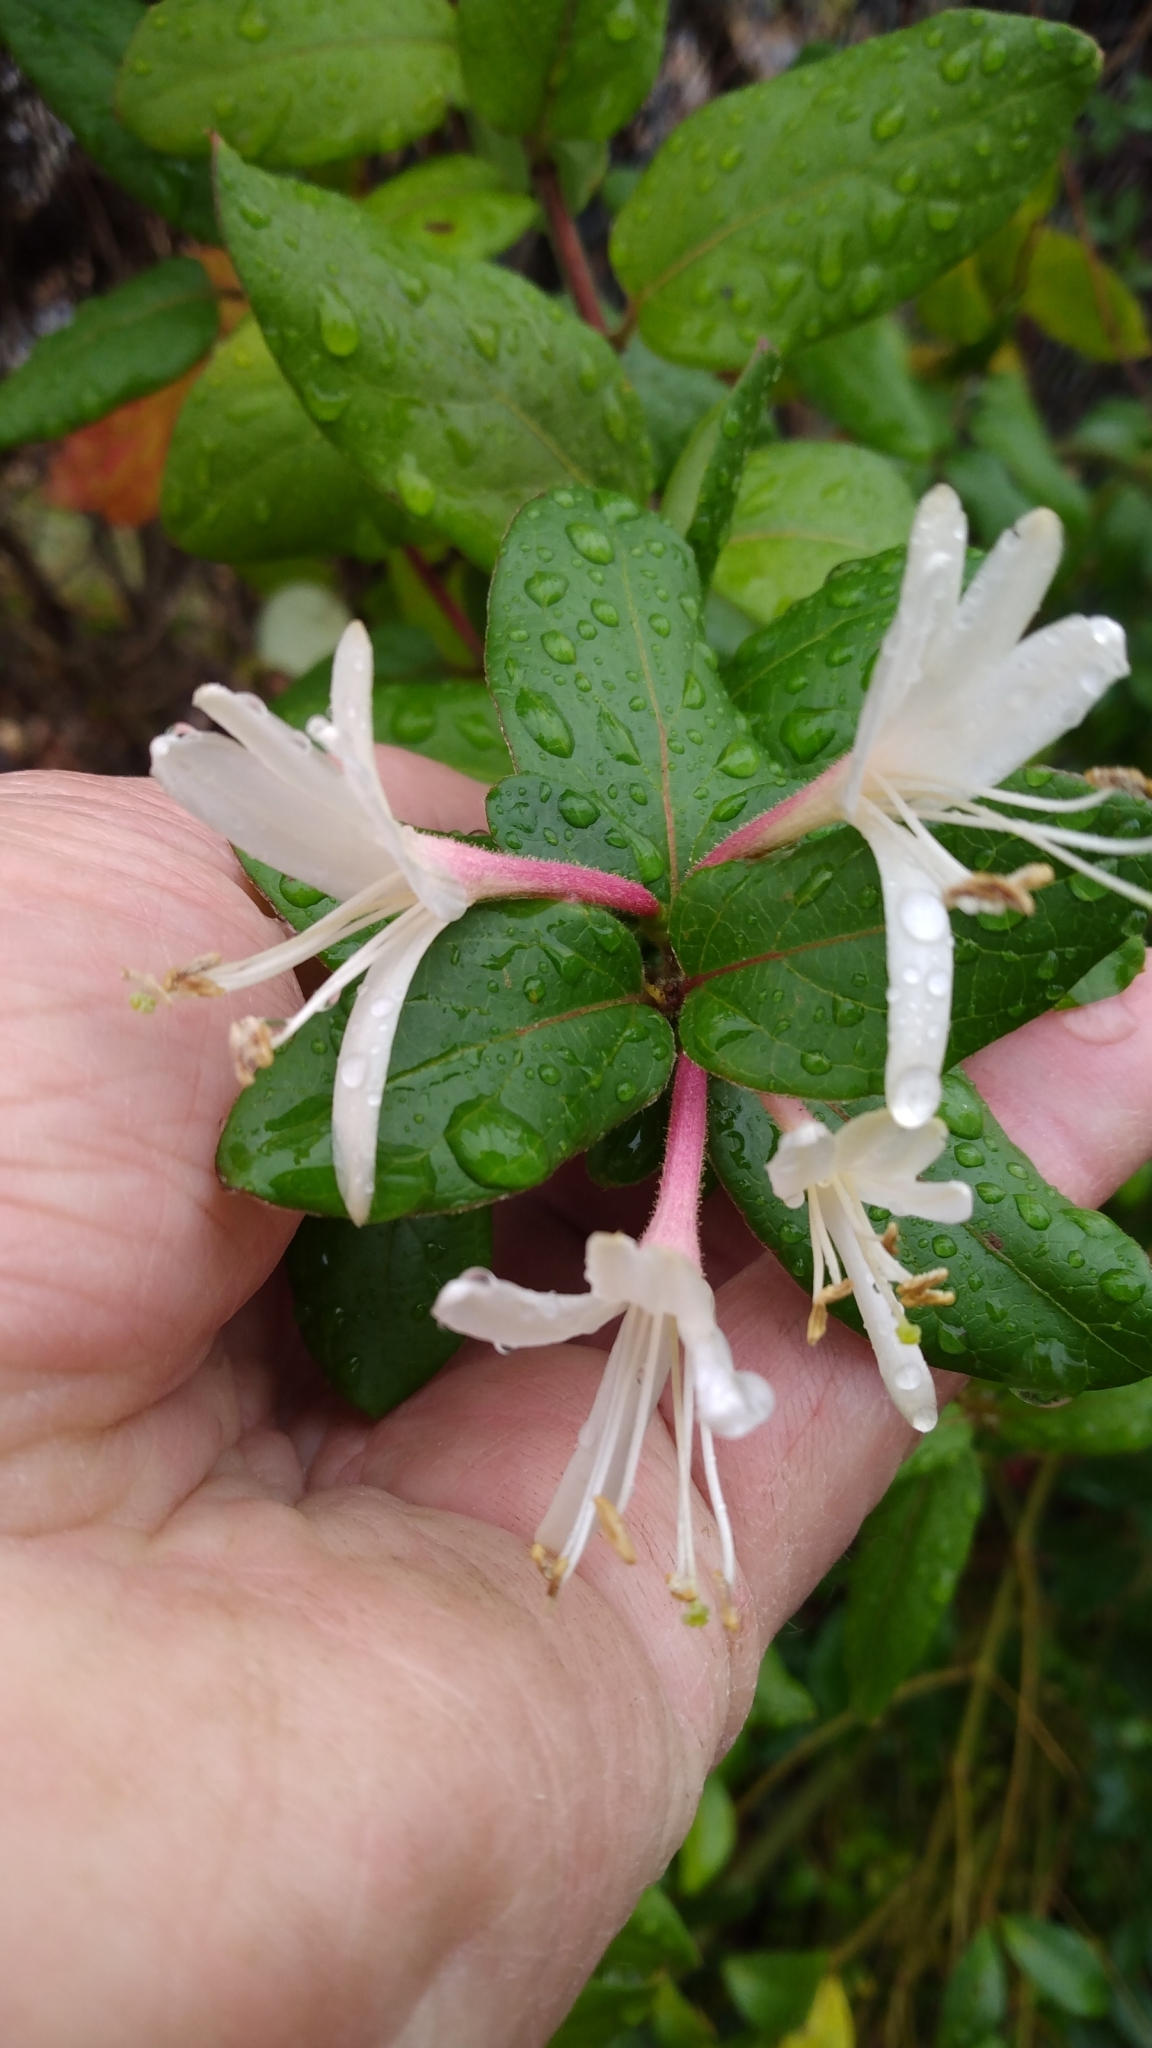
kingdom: Plantae
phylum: Tracheophyta
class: Magnoliopsida
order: Dipsacales
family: Caprifoliaceae
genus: Lonicera
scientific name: Lonicera japonica
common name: Japanese honeysuckle
